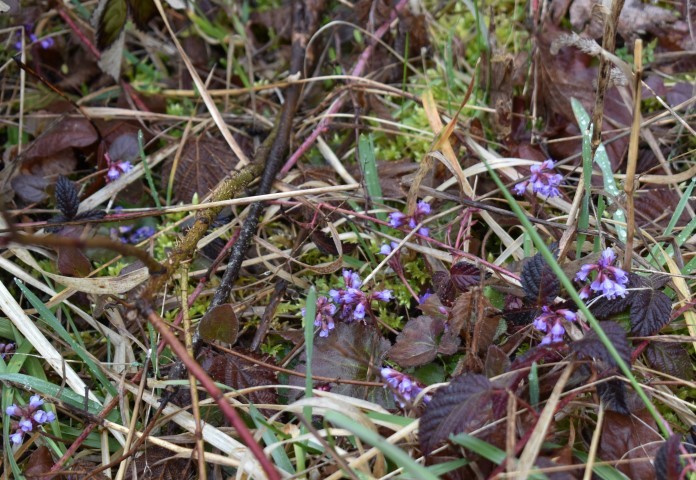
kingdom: Plantae
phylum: Tracheophyta
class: Magnoliopsida
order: Lamiales
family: Plantaginaceae
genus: Synthyris
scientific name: Synthyris reniformis
